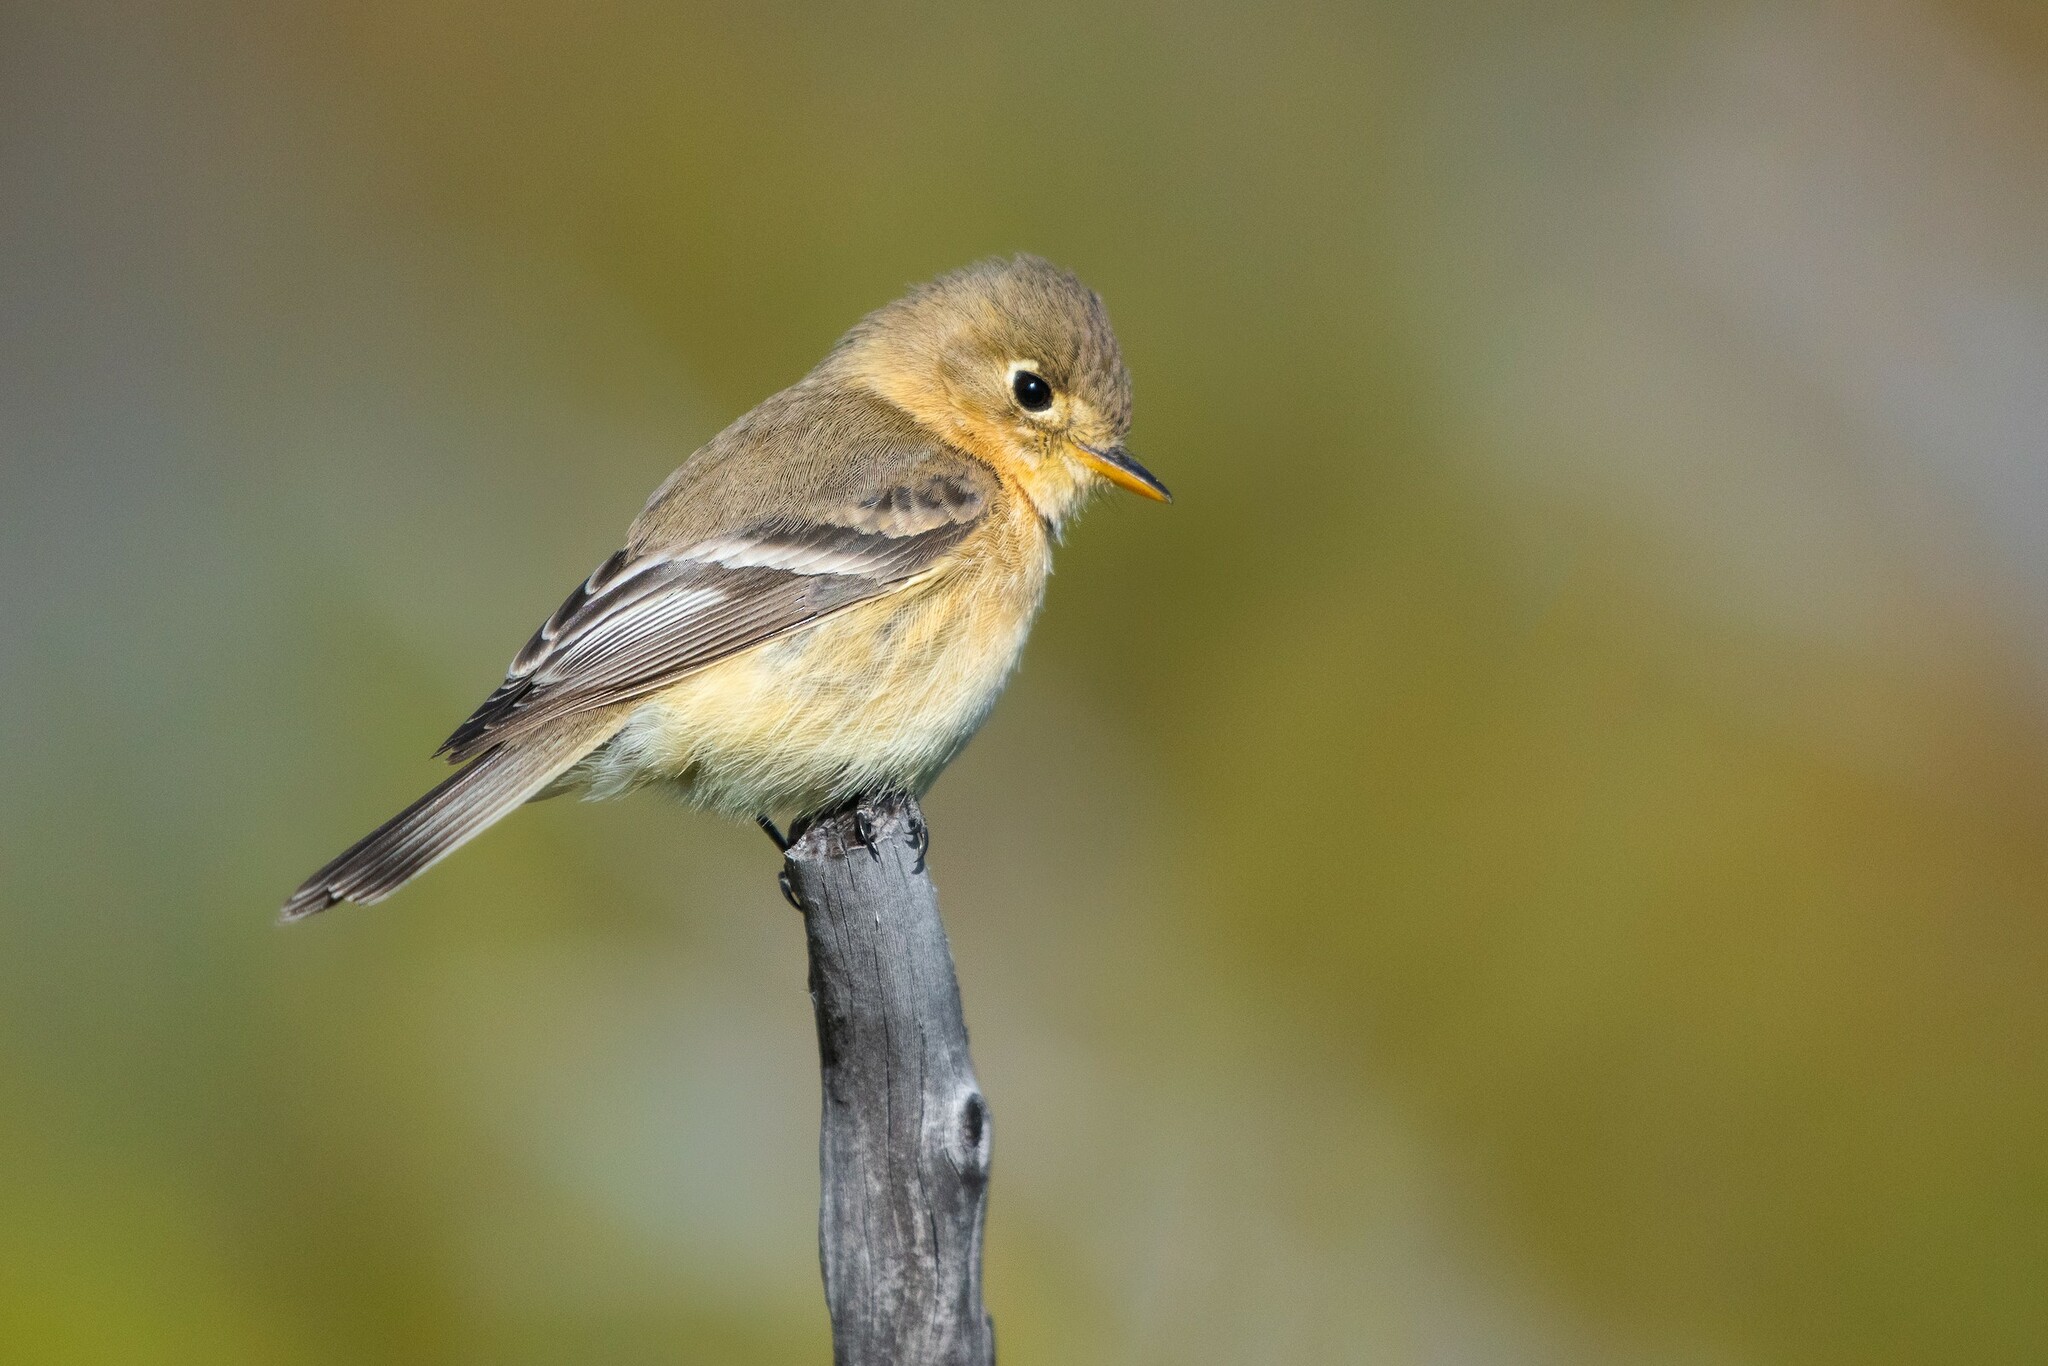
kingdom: Animalia
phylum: Chordata
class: Aves
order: Passeriformes
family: Tyrannidae
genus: Empidonax
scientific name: Empidonax fulvifrons
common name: Buff-breasted flycatcher
